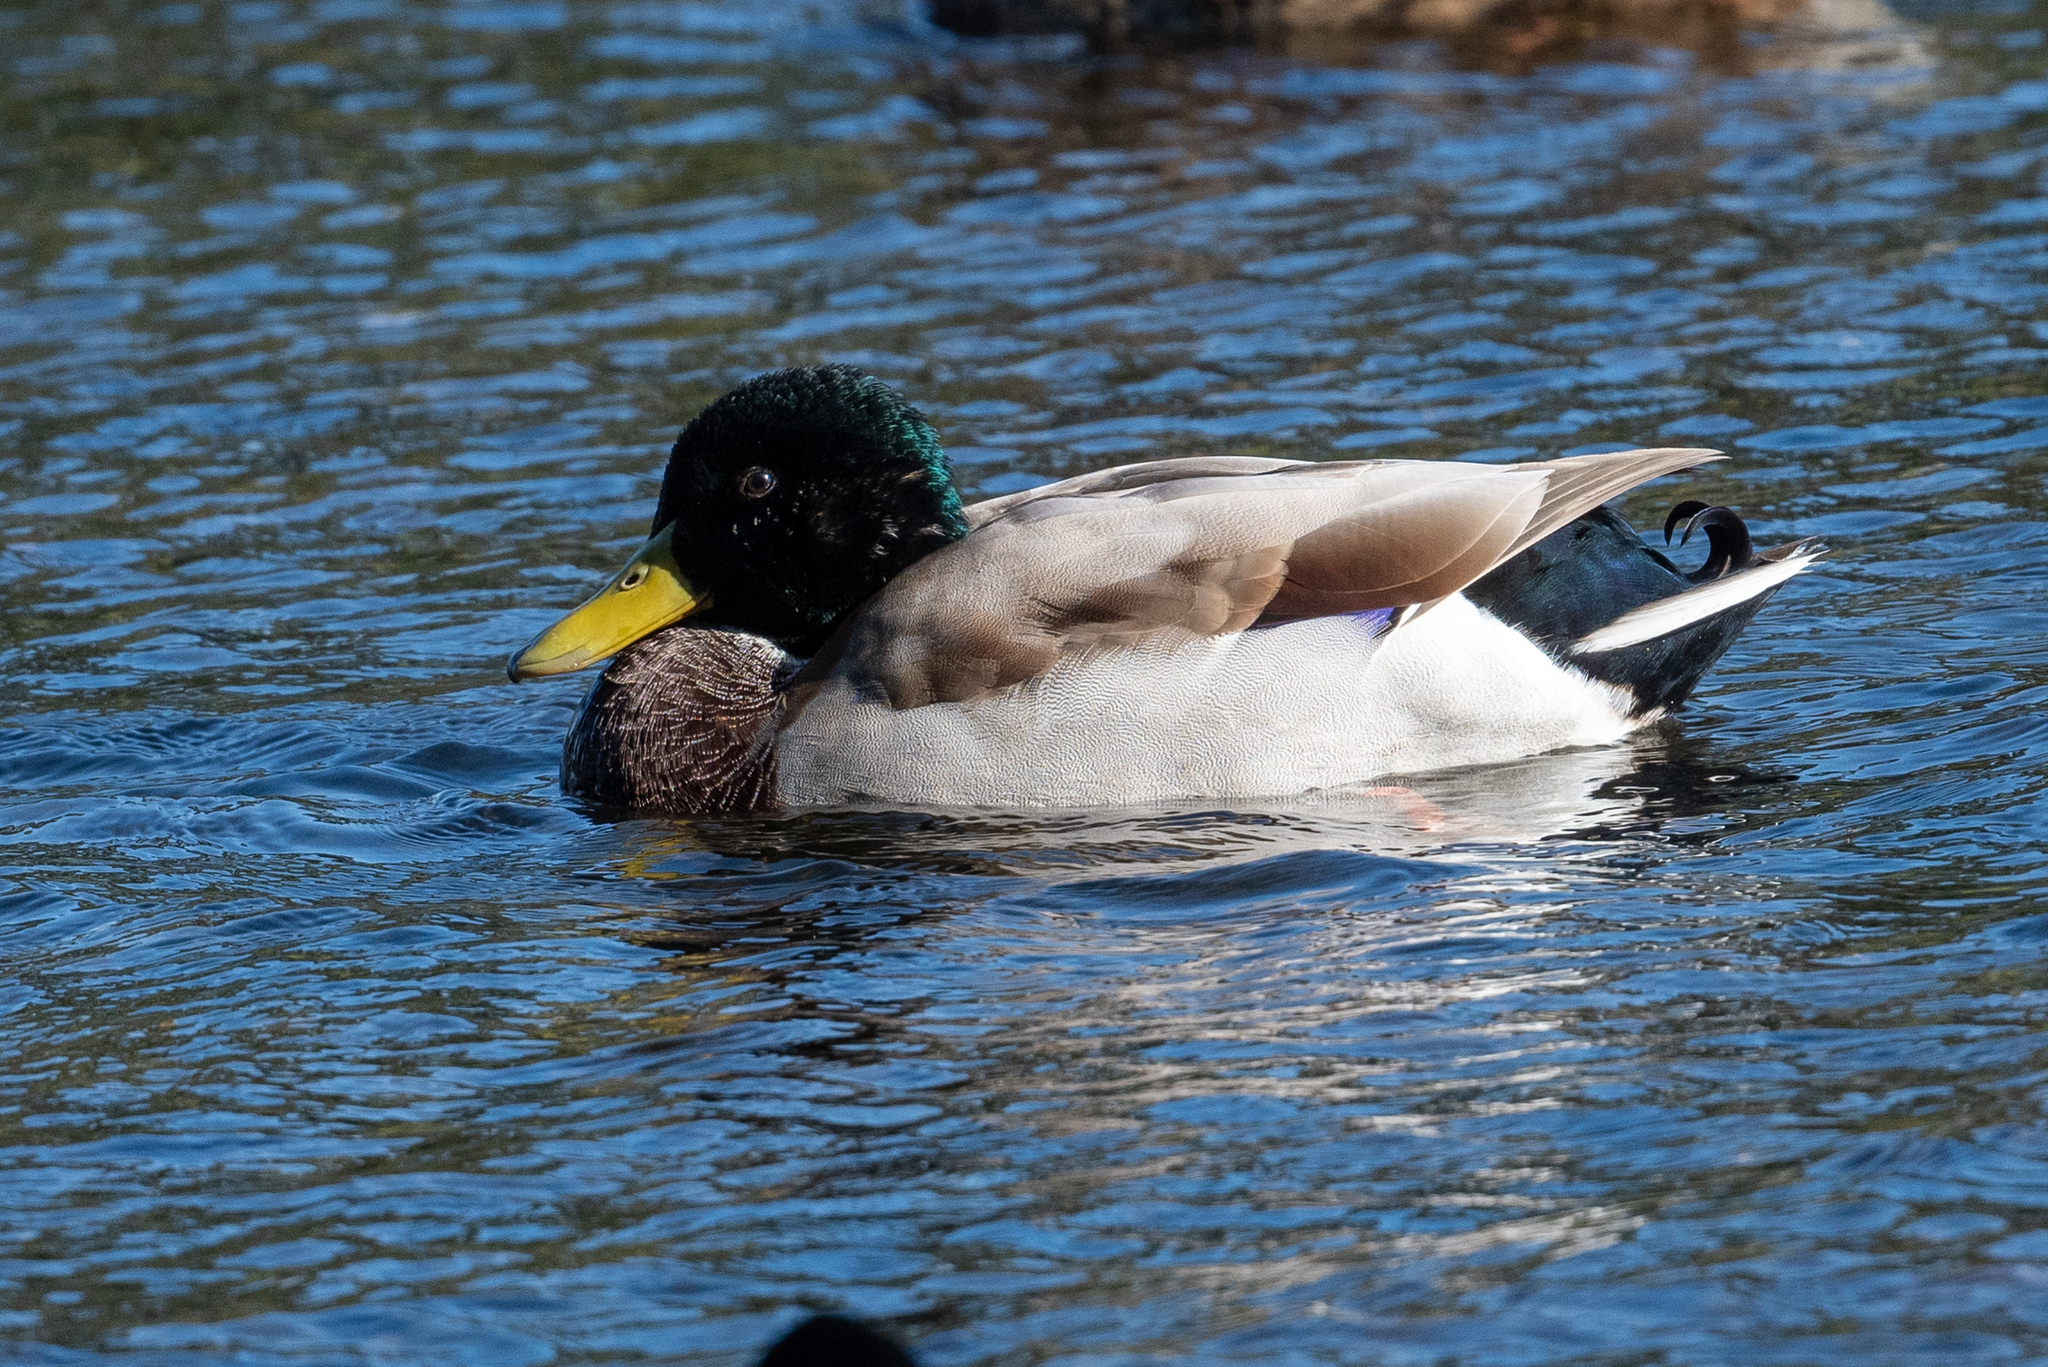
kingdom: Animalia
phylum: Chordata
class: Aves
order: Anseriformes
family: Anatidae
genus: Anas
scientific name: Anas platyrhynchos
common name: Mallard
